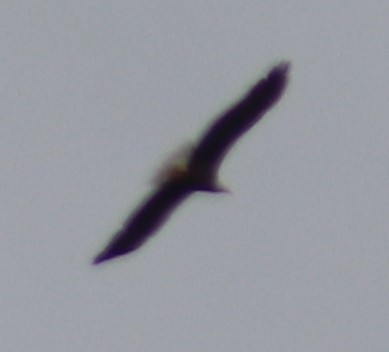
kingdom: Animalia
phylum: Chordata
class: Aves
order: Accipitriformes
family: Accipitridae
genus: Haliaeetus
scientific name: Haliaeetus leucocephalus
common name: Bald eagle
